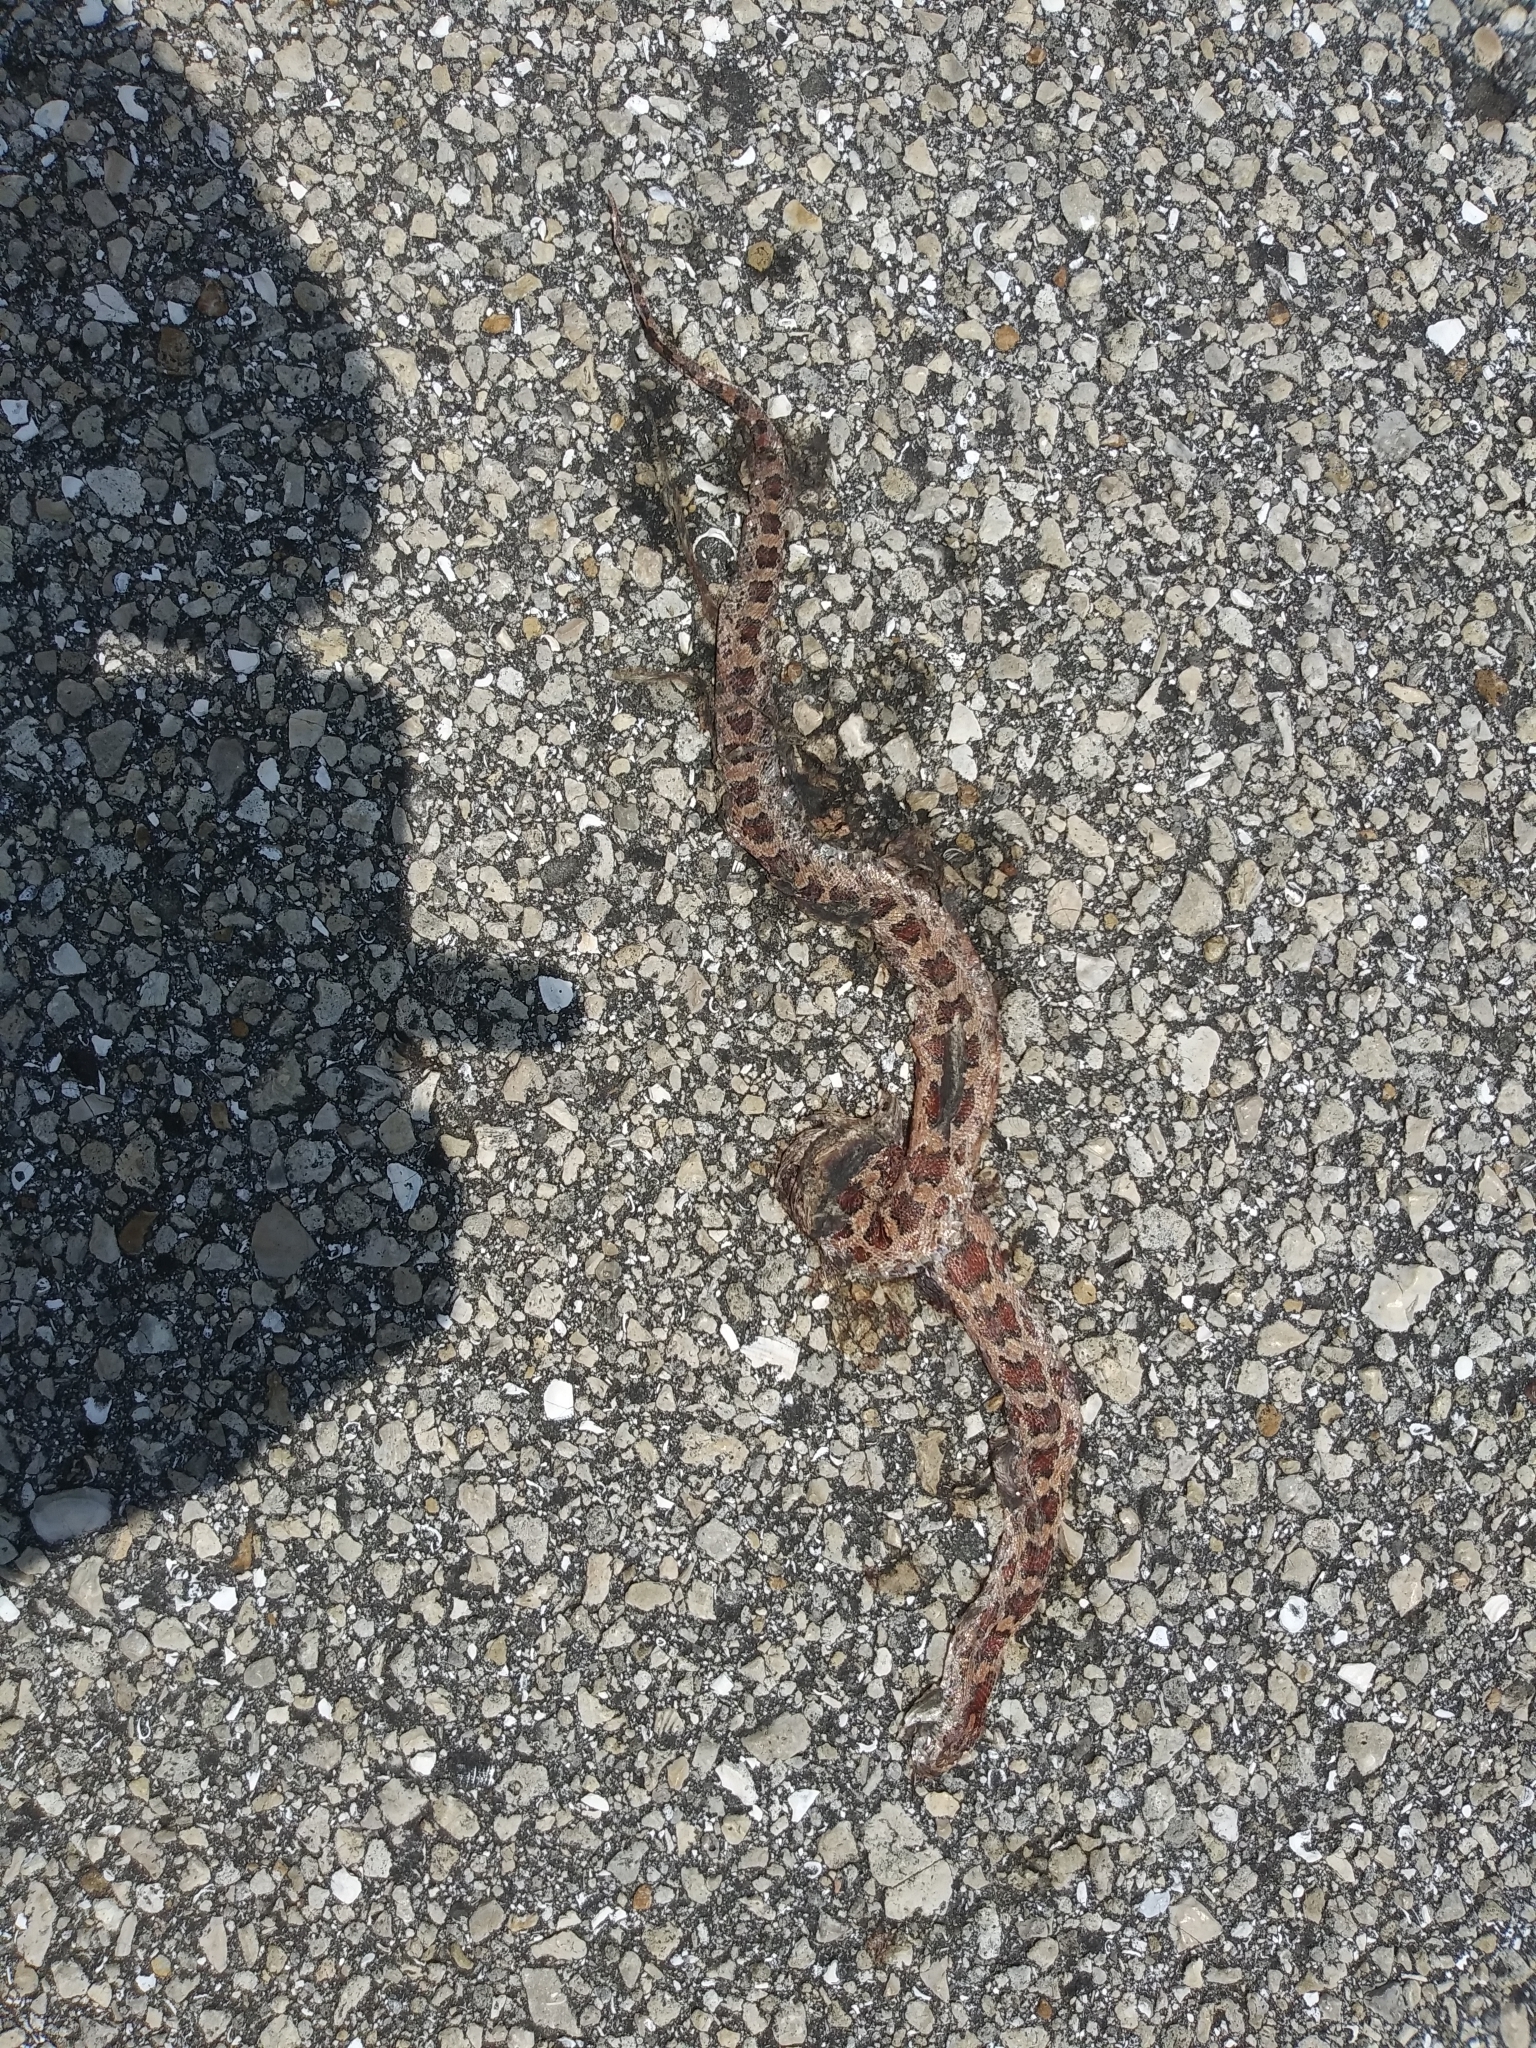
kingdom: Animalia
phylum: Chordata
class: Squamata
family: Colubridae
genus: Pantherophis
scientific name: Pantherophis guttatus
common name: Red cornsnake
